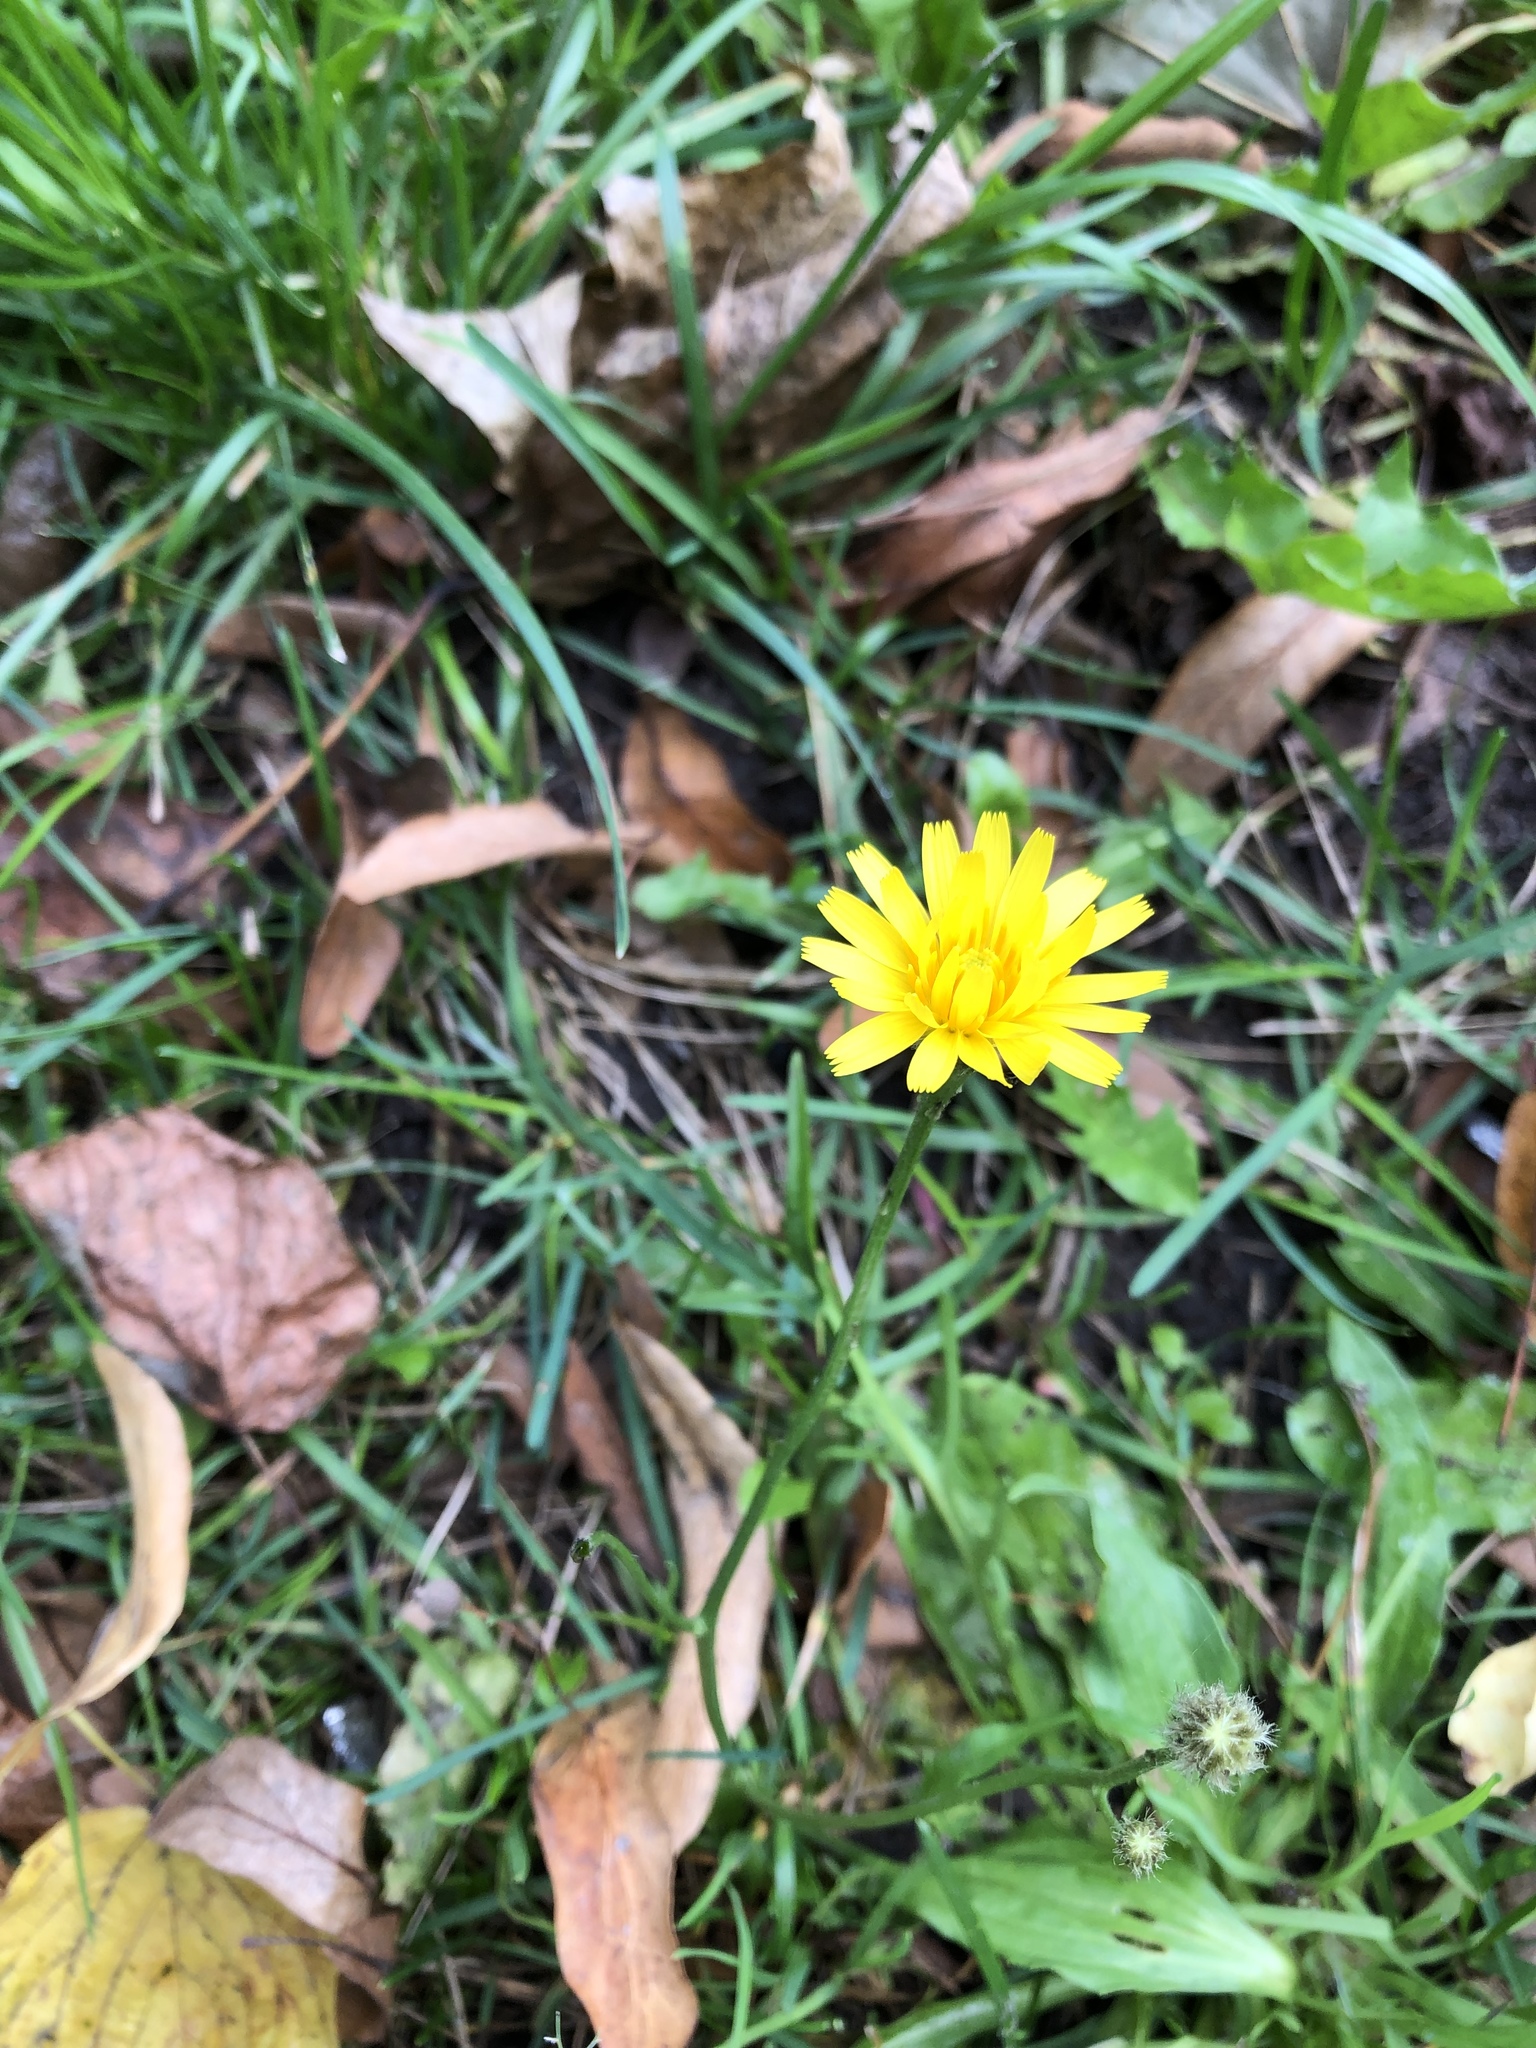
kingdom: Plantae
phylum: Tracheophyta
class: Magnoliopsida
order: Asterales
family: Asteraceae
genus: Scorzoneroides
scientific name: Scorzoneroides autumnalis
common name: Autumn hawkbit
